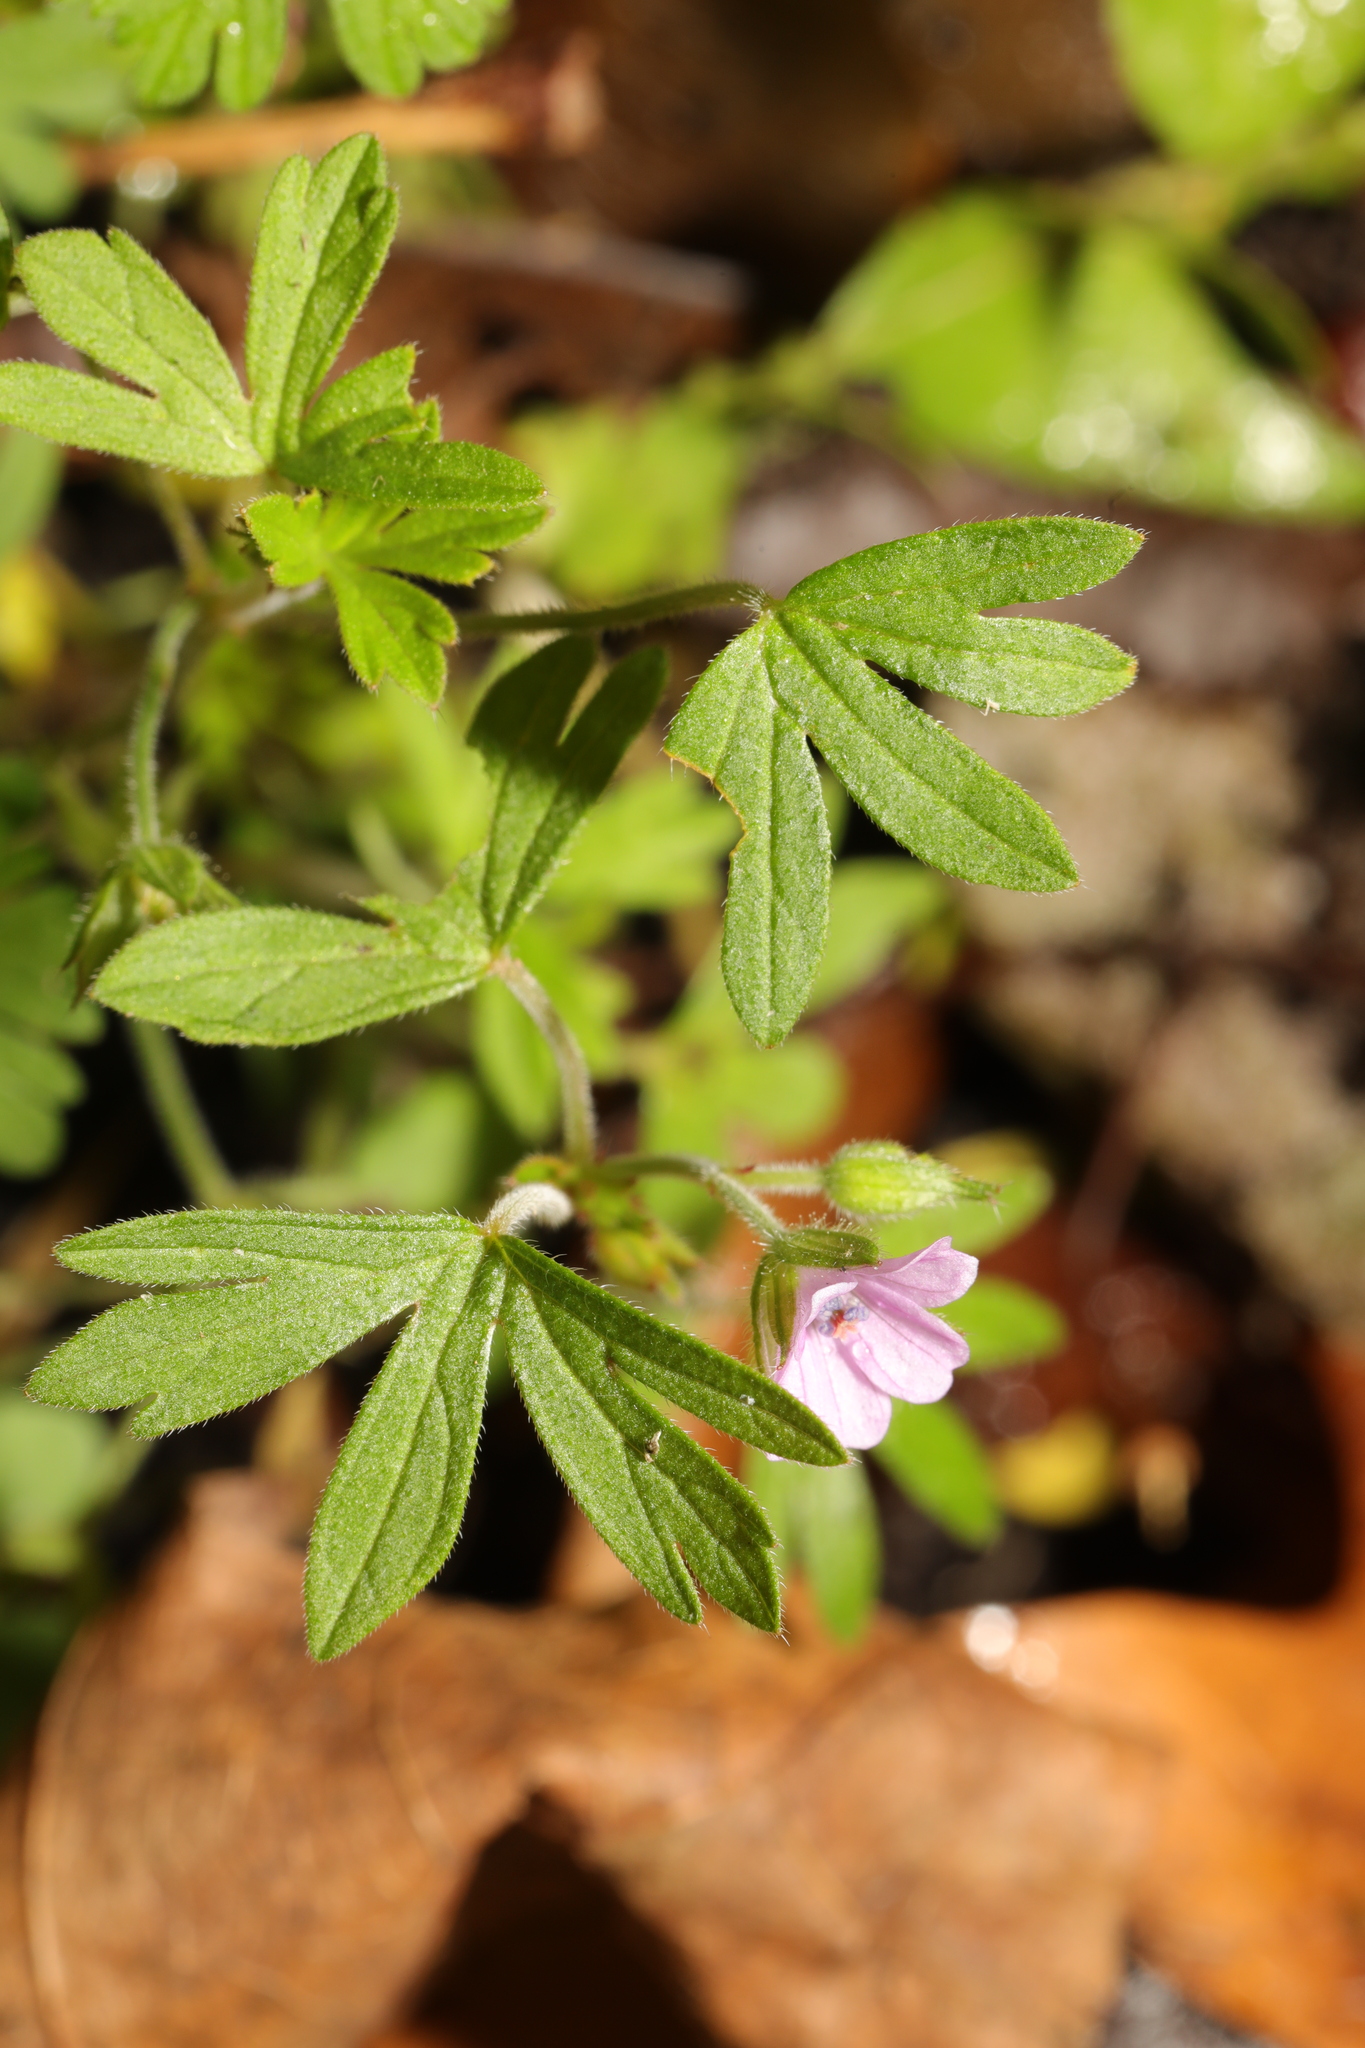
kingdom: Plantae
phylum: Tracheophyta
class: Magnoliopsida
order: Geraniales
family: Geraniaceae
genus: Geranium
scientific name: Geranium dissectum
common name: Cut-leaved crane's-bill
